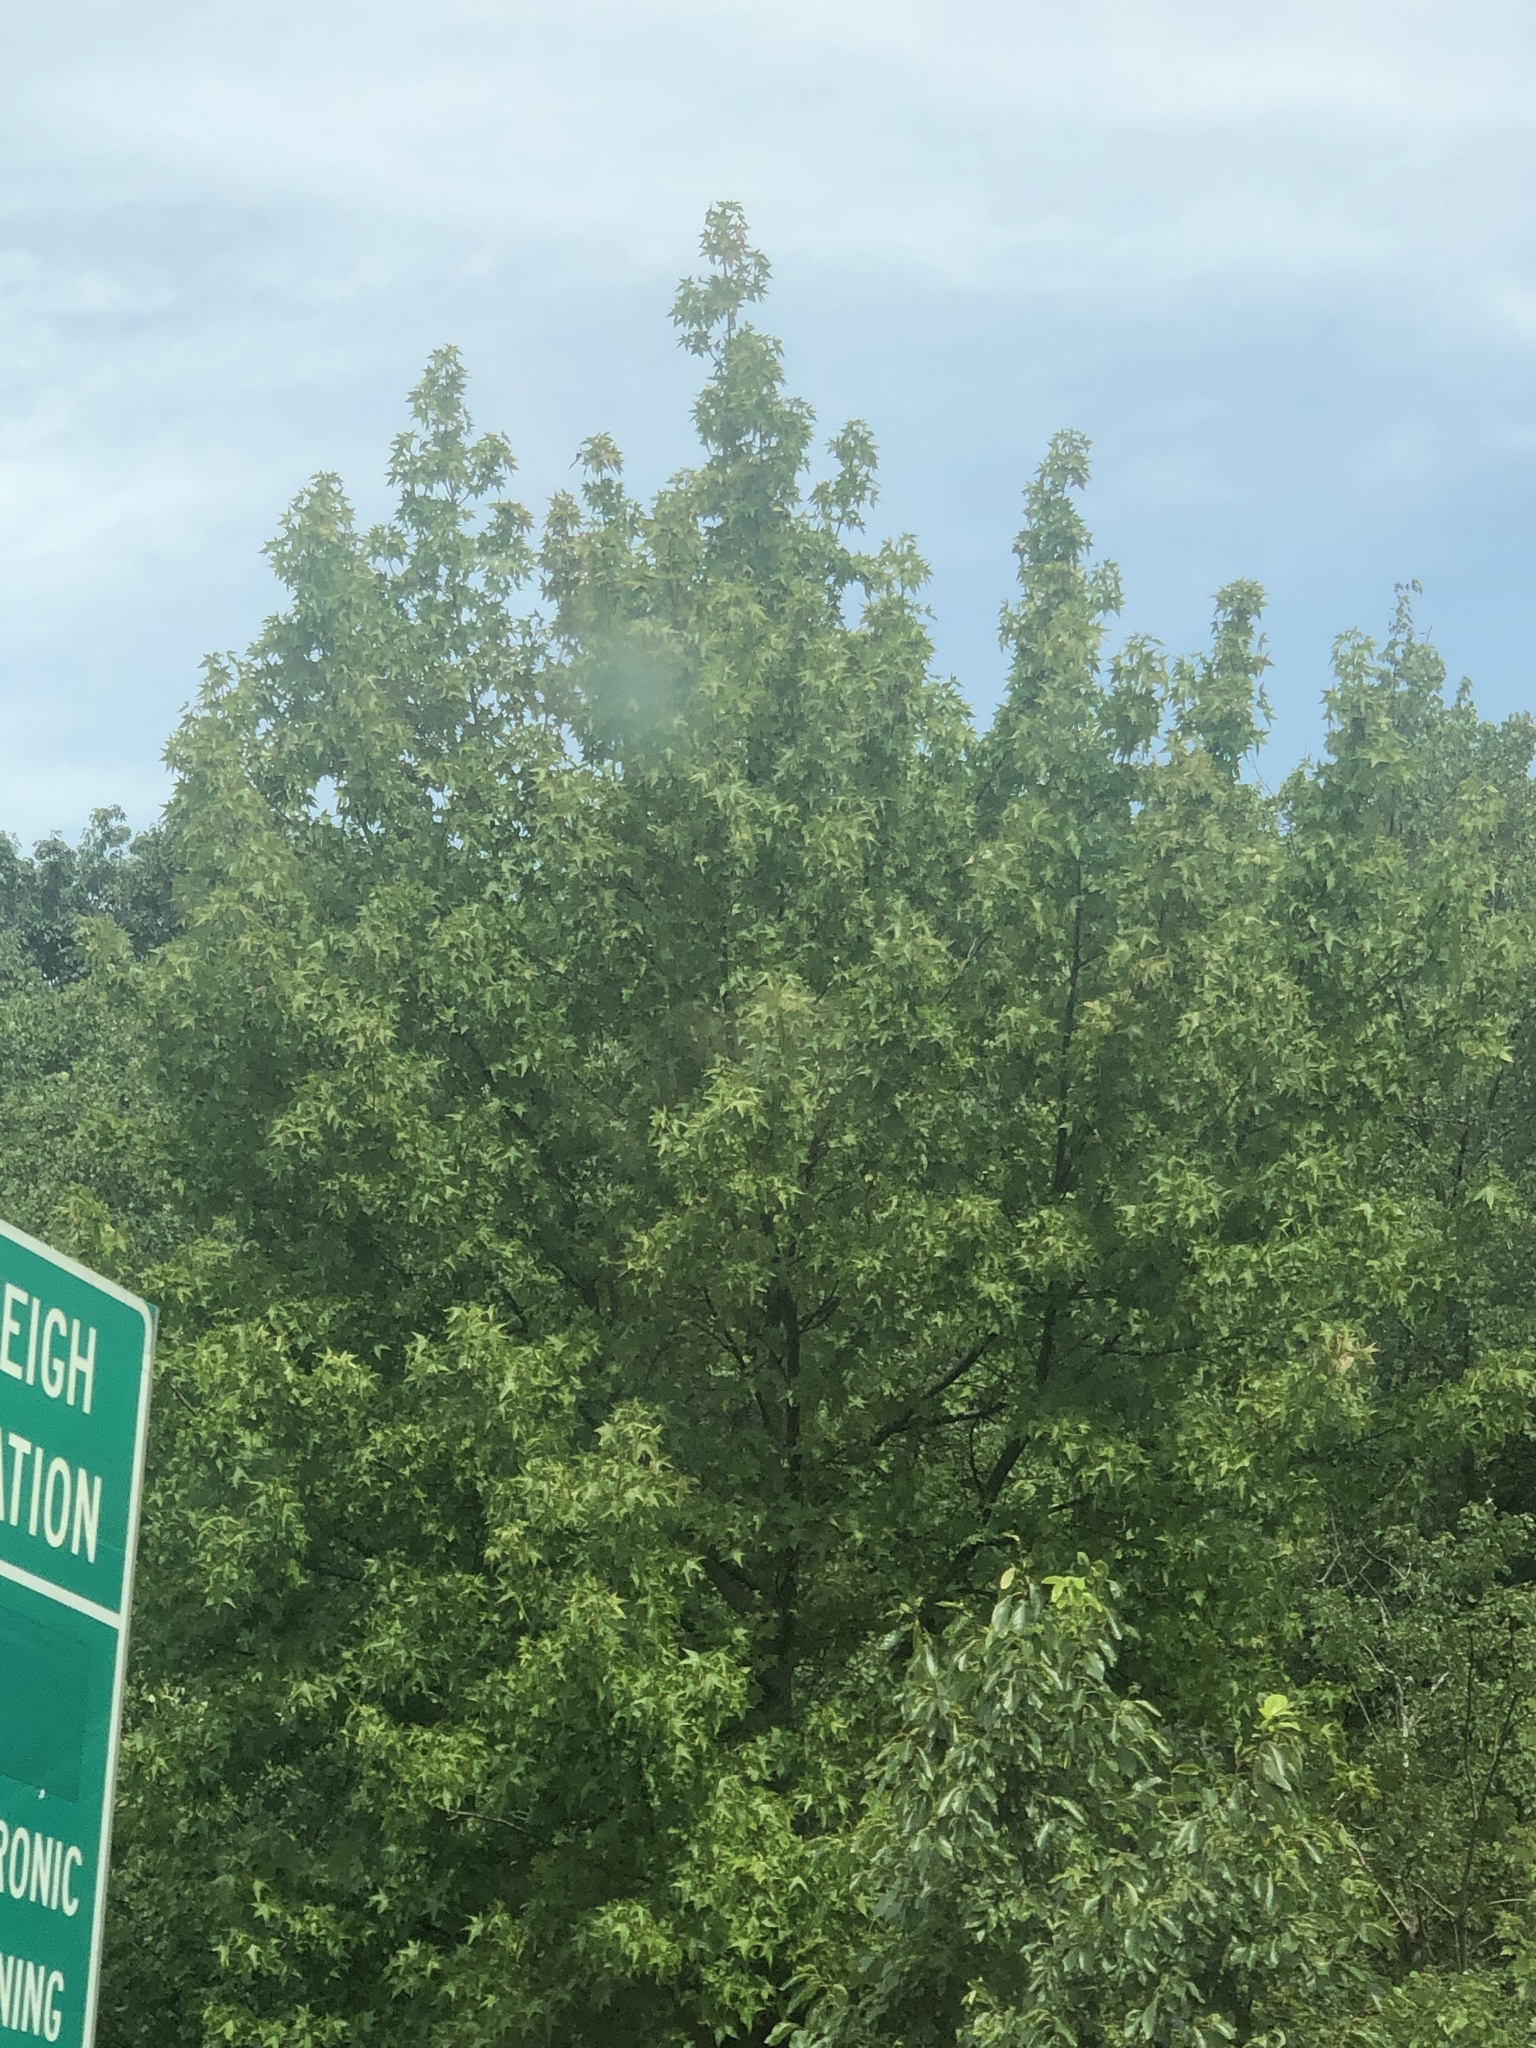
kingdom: Plantae
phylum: Tracheophyta
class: Magnoliopsida
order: Saxifragales
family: Altingiaceae
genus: Liquidambar
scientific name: Liquidambar styraciflua
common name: Sweet gum
